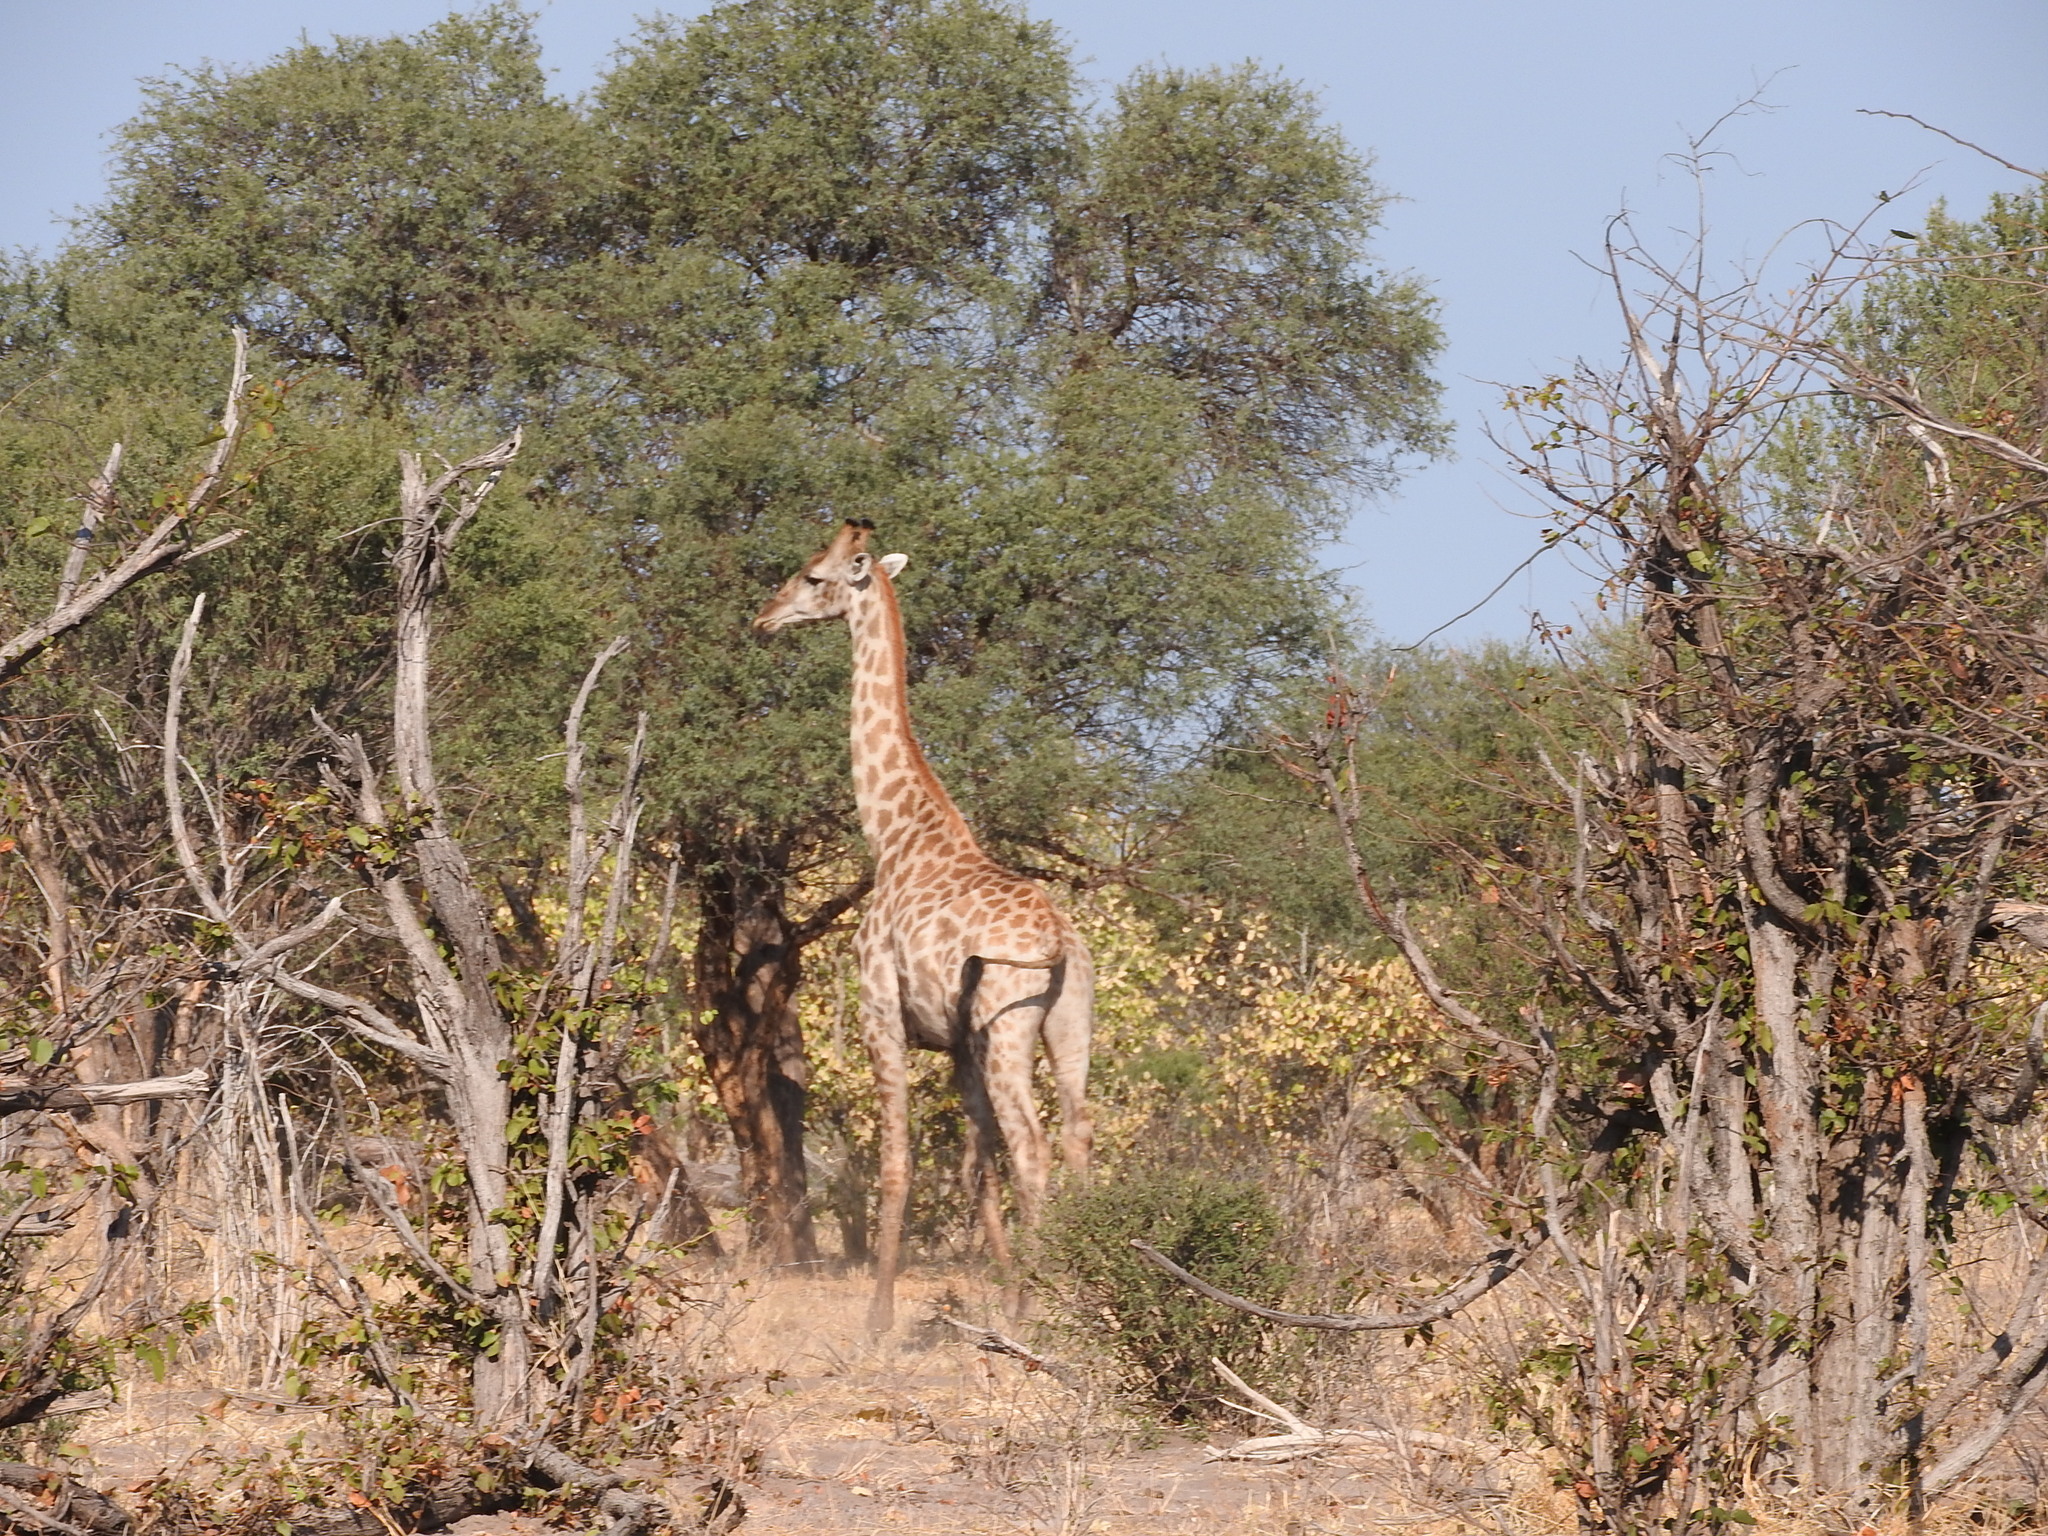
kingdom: Animalia
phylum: Chordata
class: Mammalia
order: Artiodactyla
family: Giraffidae
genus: Giraffa
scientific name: Giraffa giraffa
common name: Southern giraffe
